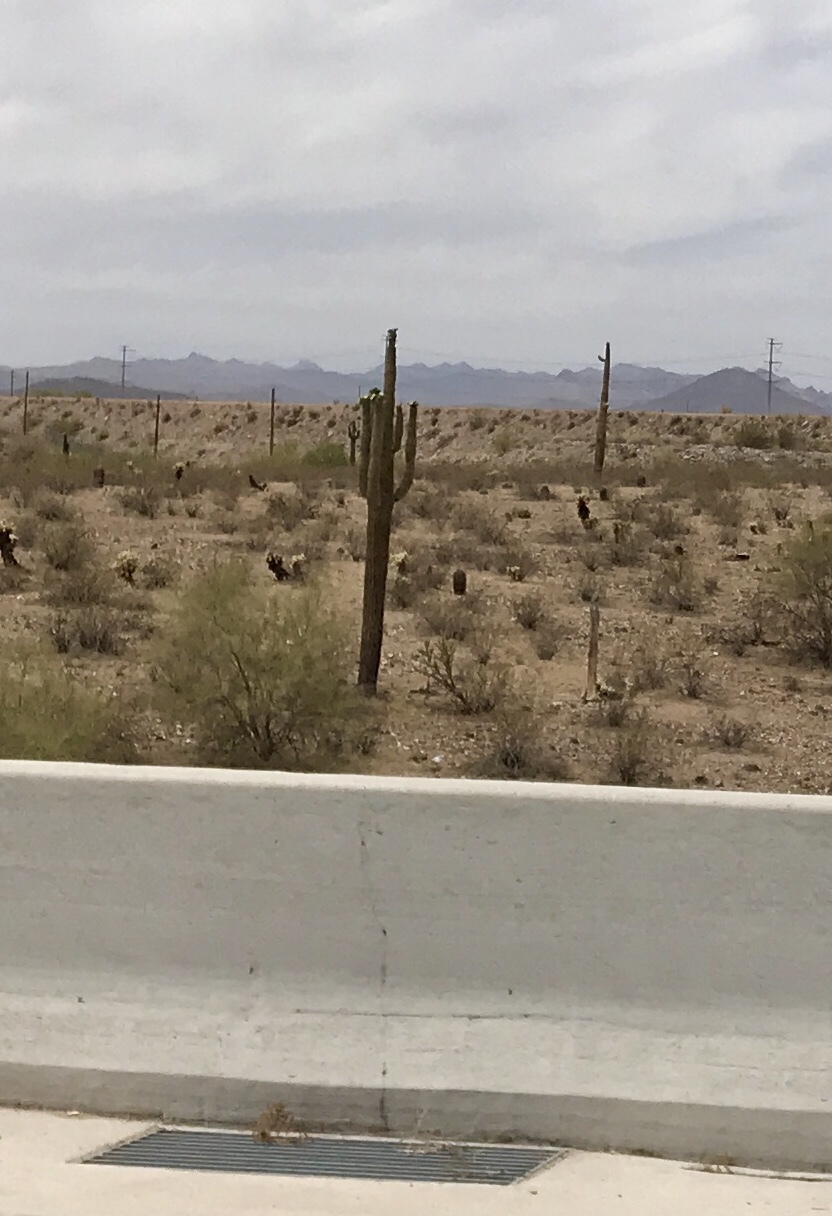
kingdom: Plantae
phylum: Tracheophyta
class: Magnoliopsida
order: Caryophyllales
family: Cactaceae
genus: Carnegiea
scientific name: Carnegiea gigantea
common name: Saguaro
